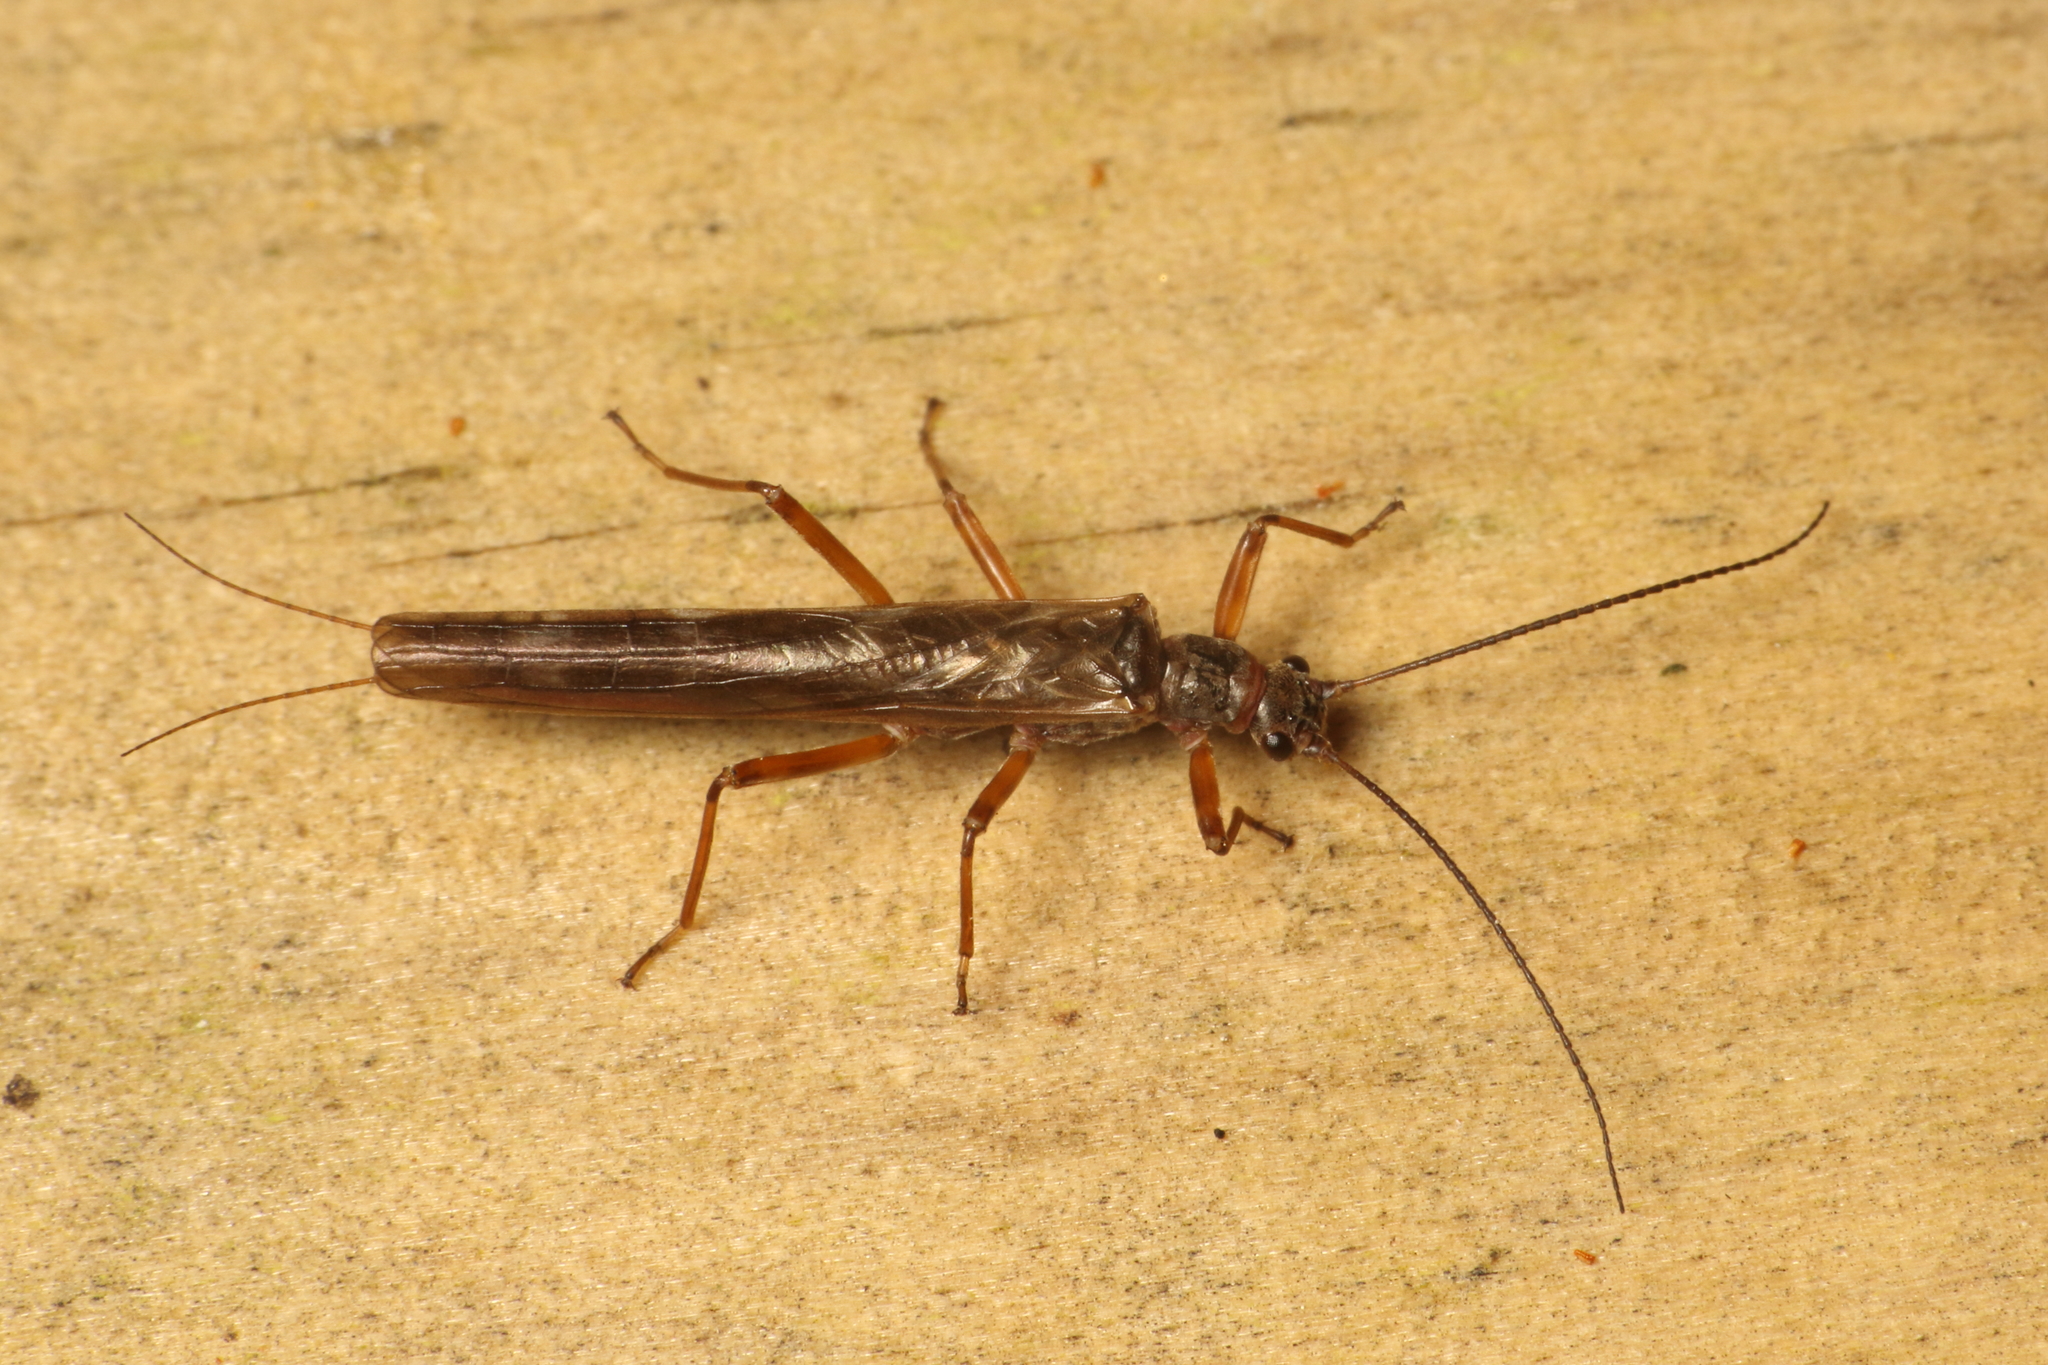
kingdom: Animalia
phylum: Arthropoda
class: Insecta
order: Plecoptera
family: Gripopterygidae
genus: Acroperla
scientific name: Acroperla trivacuata
